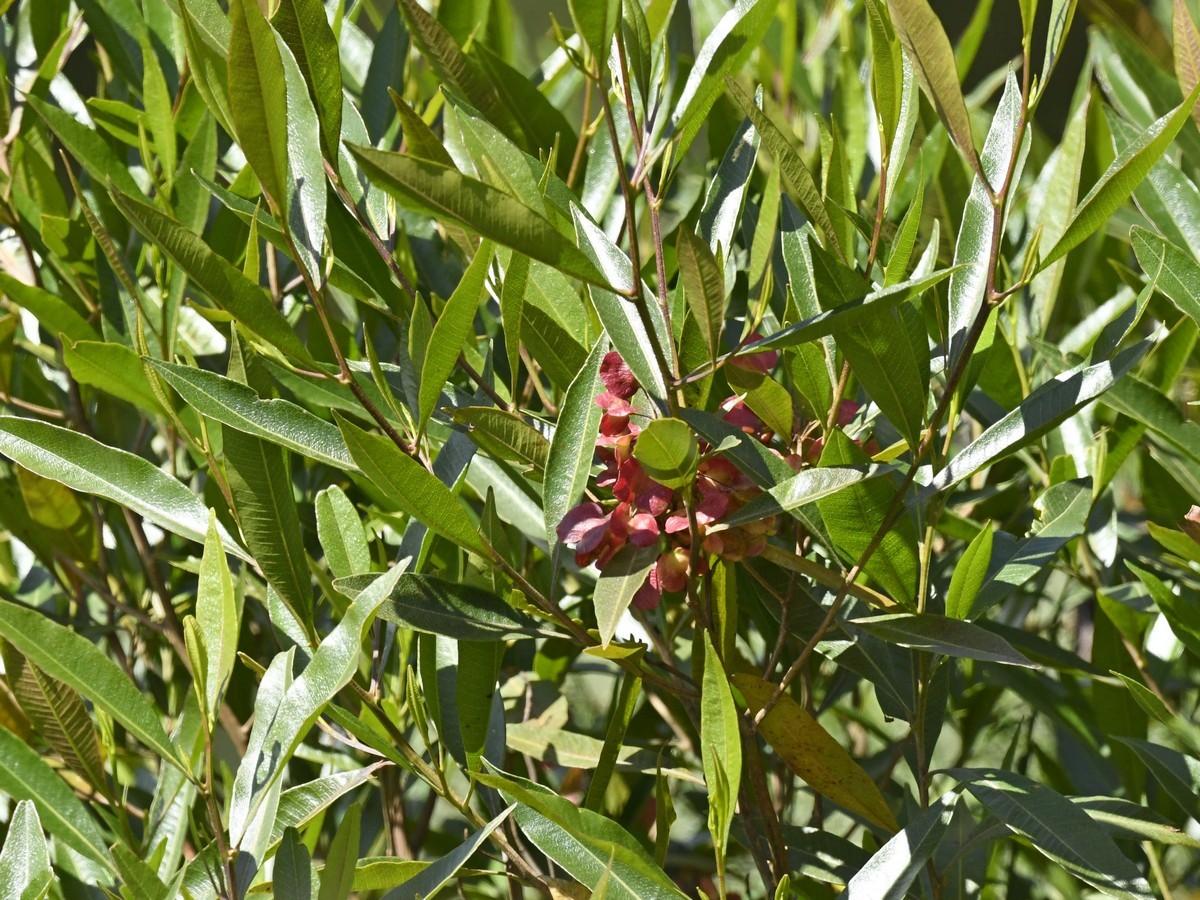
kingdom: Plantae
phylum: Tracheophyta
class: Magnoliopsida
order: Sapindales
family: Sapindaceae
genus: Dodonaea
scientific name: Dodonaea viscosa
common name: Hopbush
